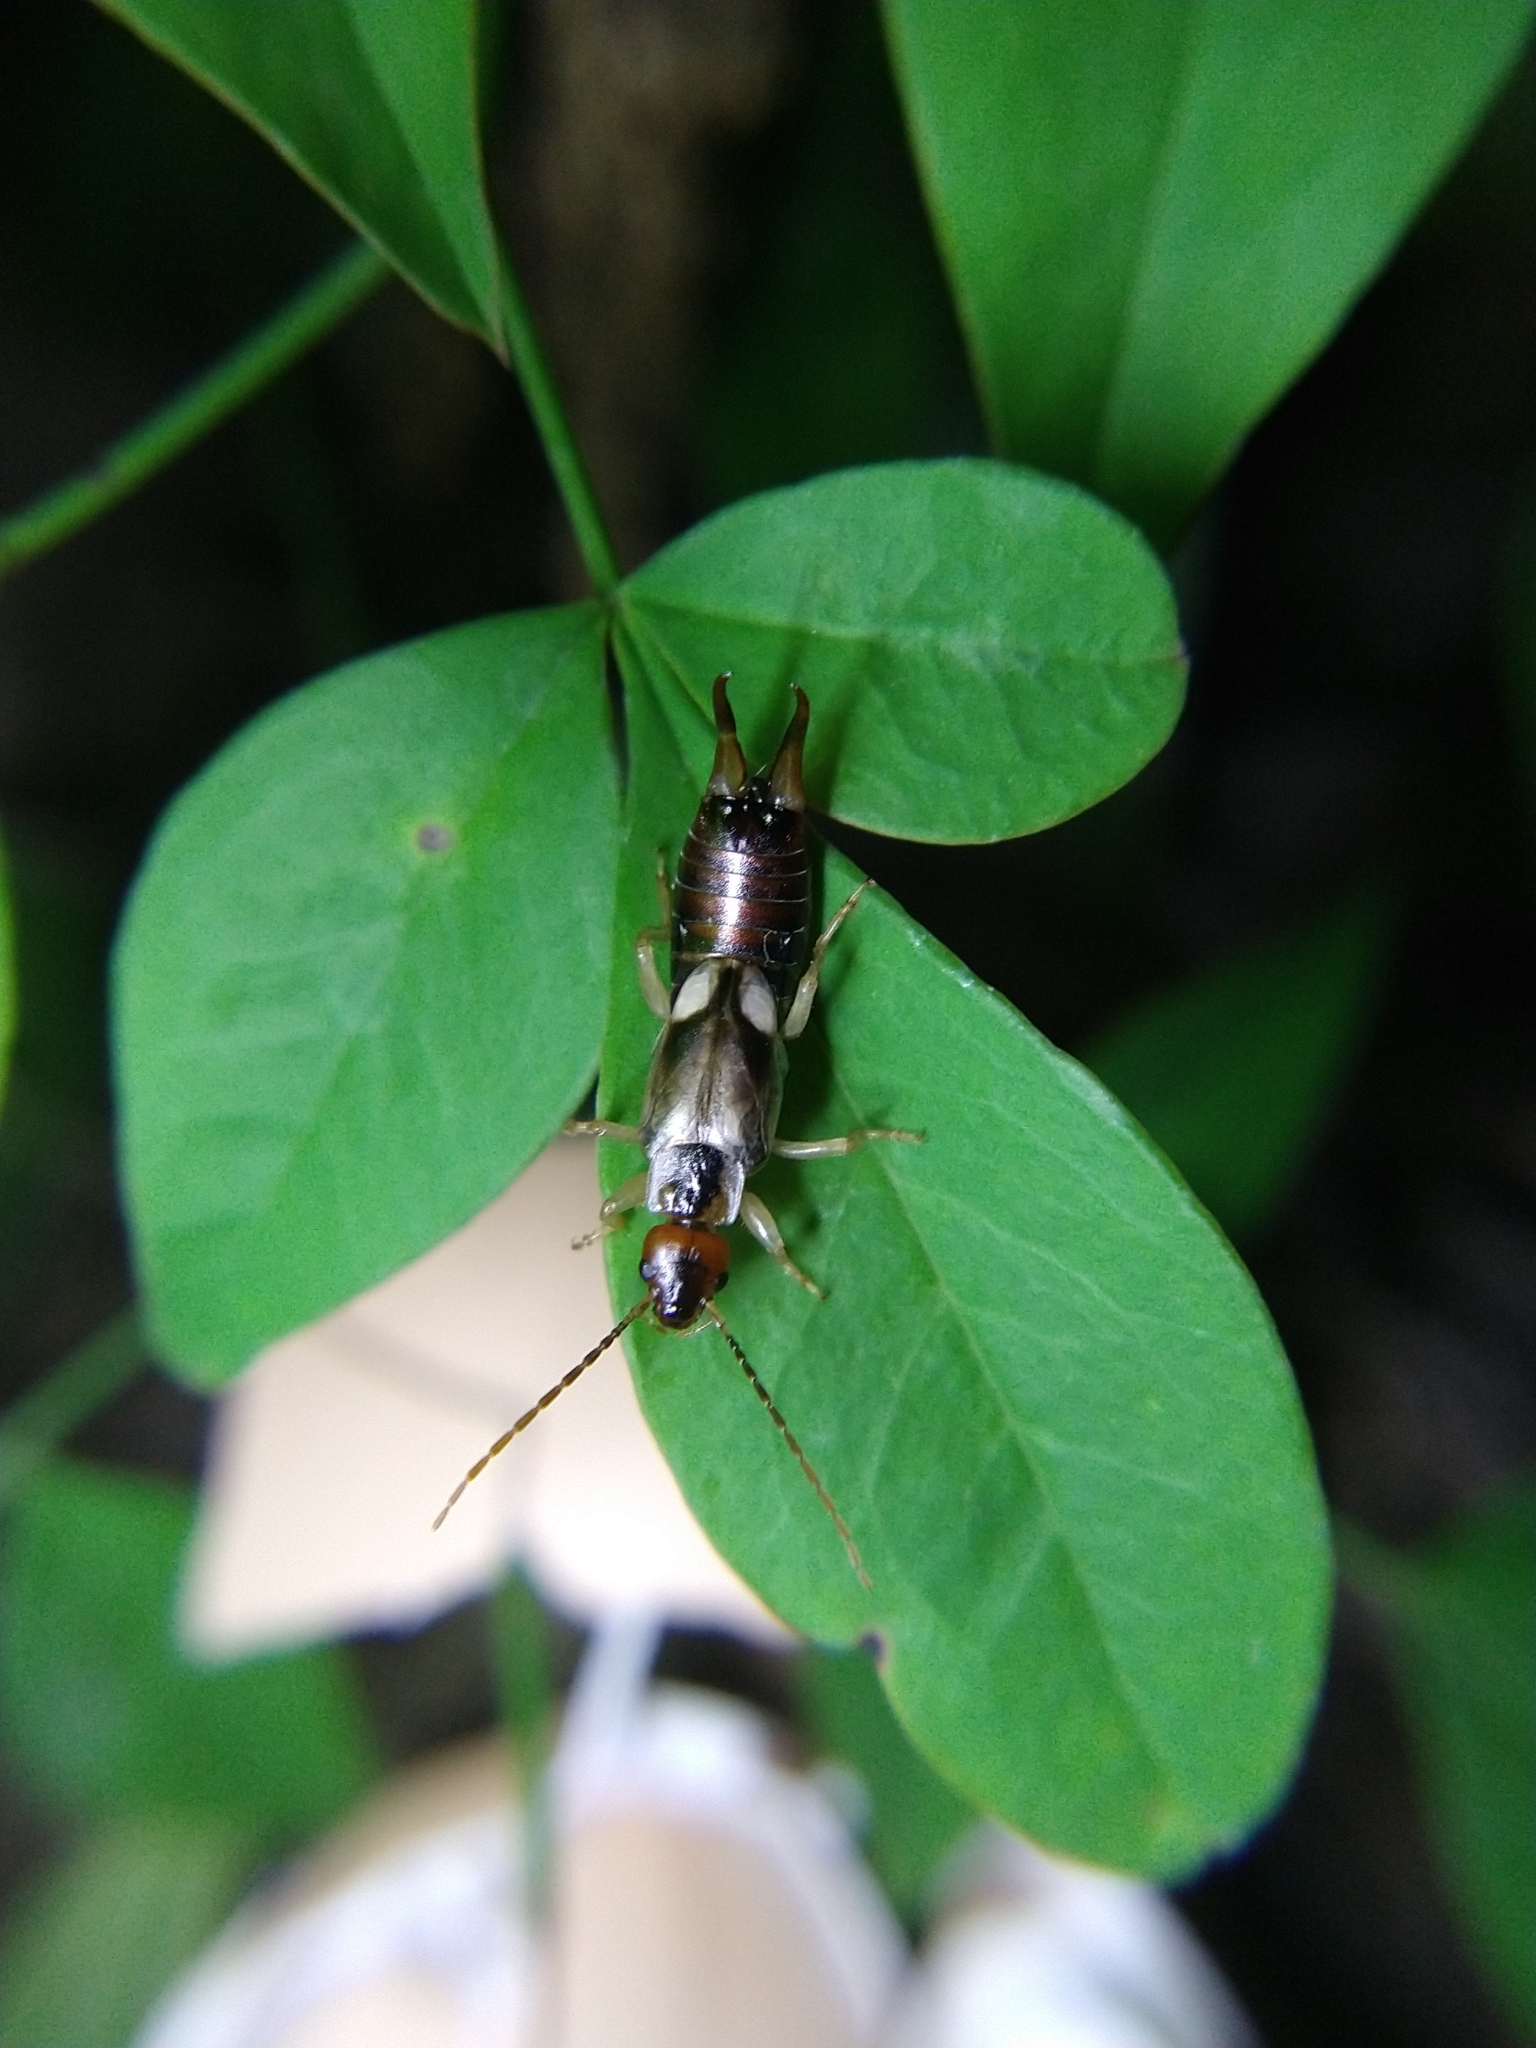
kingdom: Animalia
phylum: Arthropoda
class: Insecta
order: Dermaptera
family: Forficulidae
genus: Forficula
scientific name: Forficula dentata
